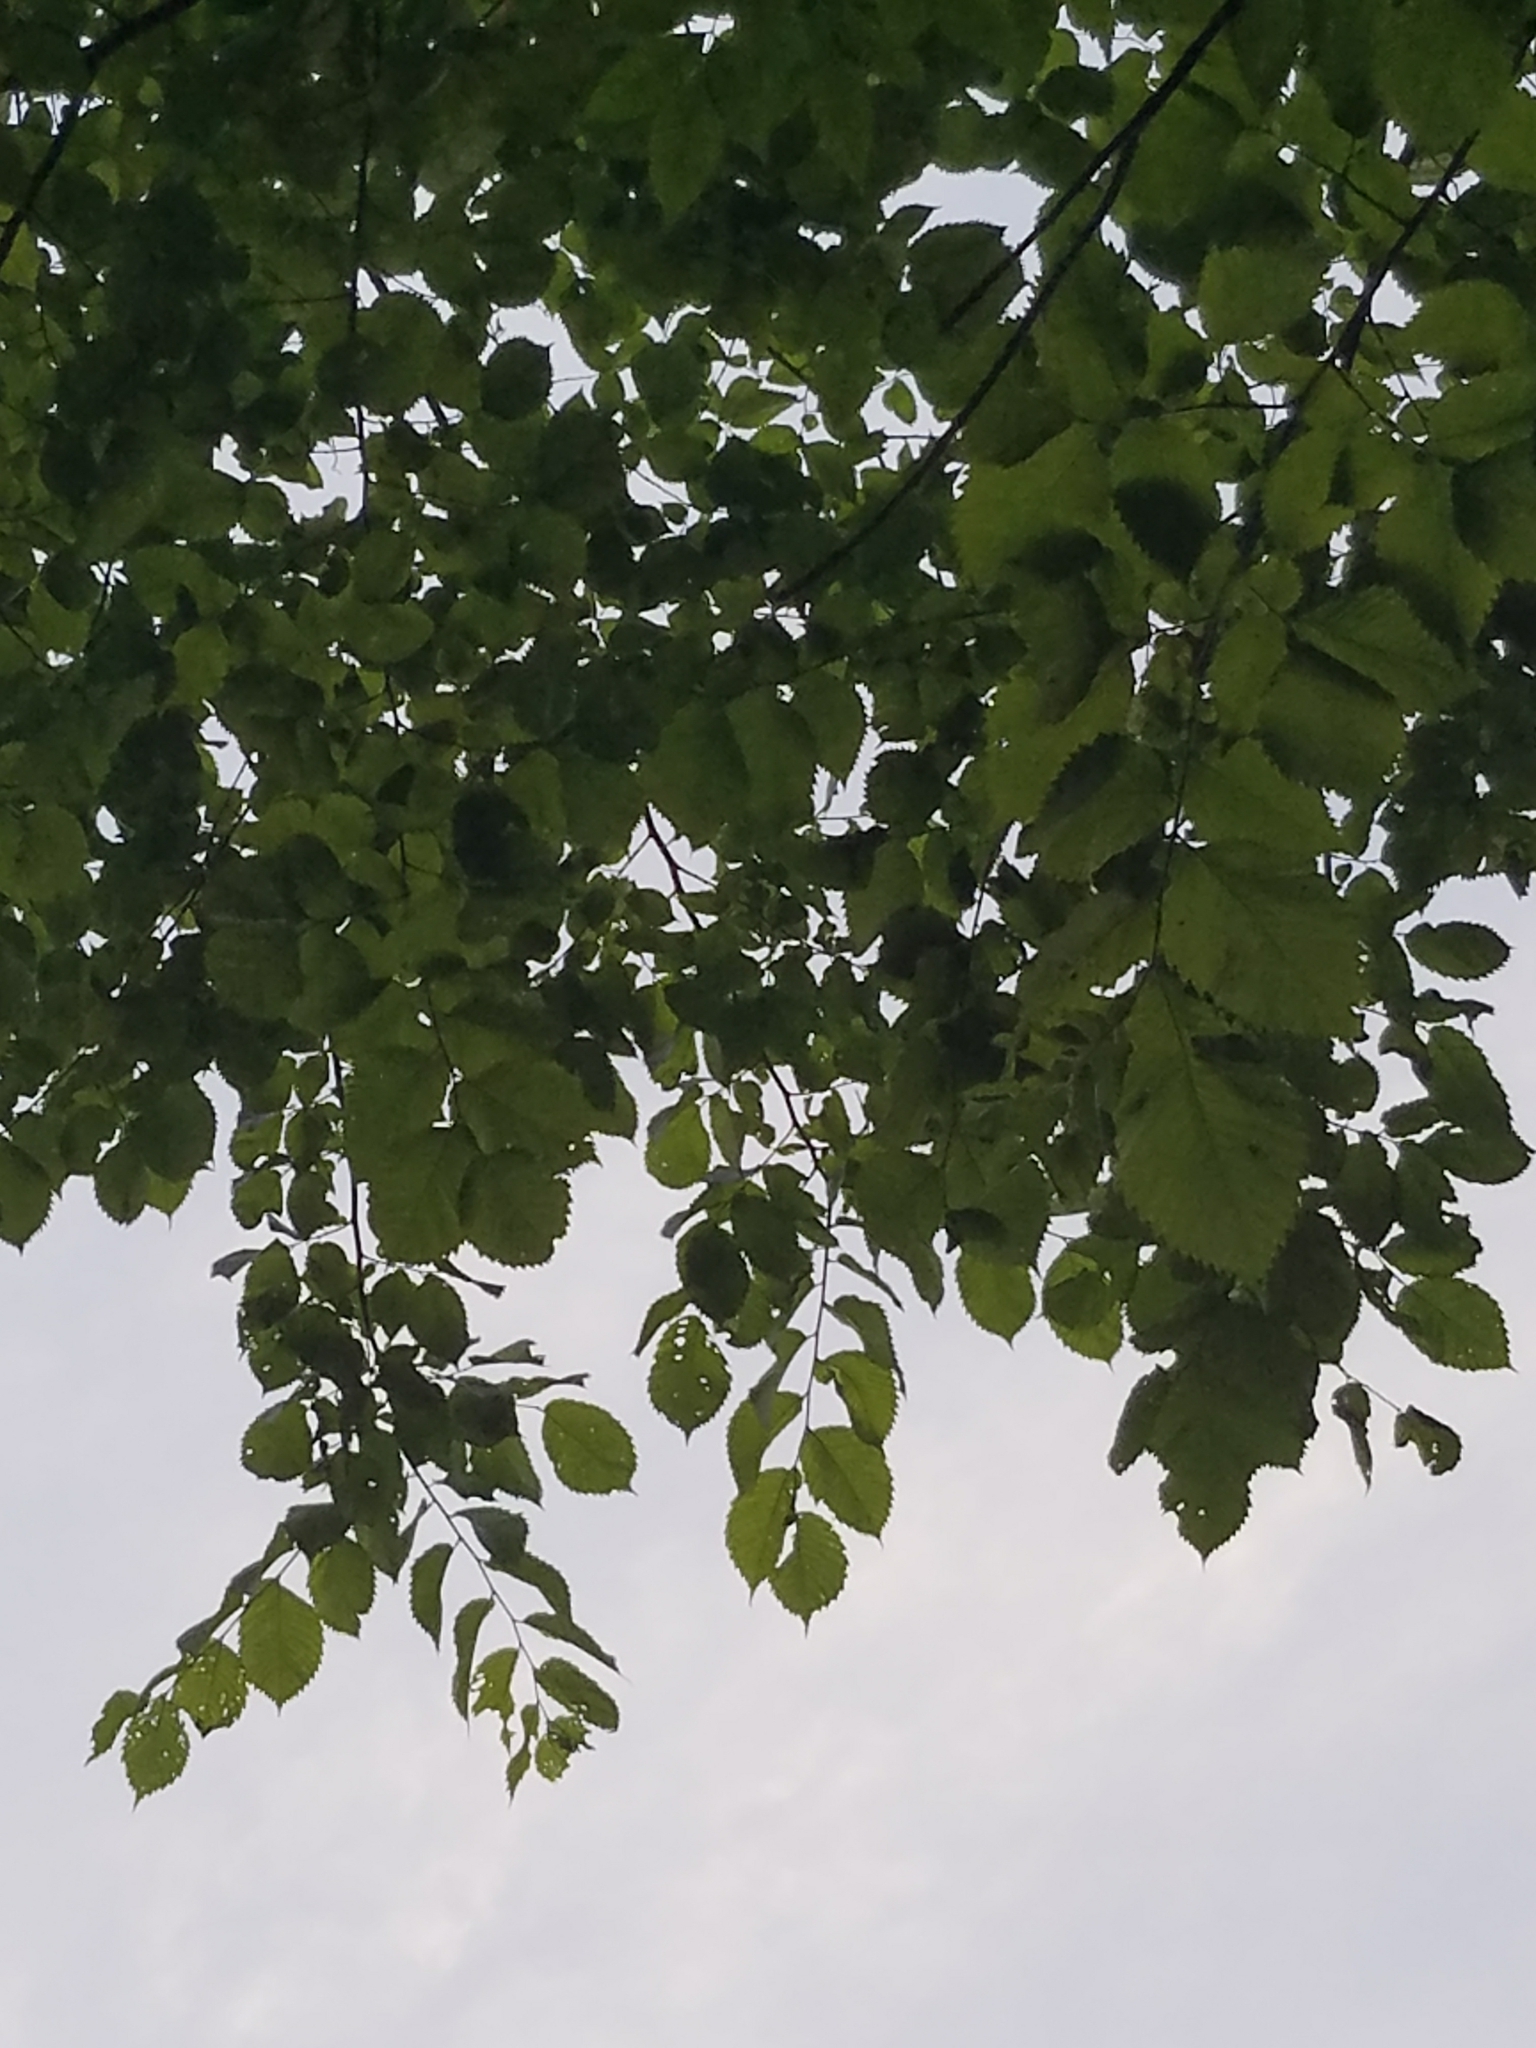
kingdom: Plantae
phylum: Tracheophyta
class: Magnoliopsida
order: Rosales
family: Ulmaceae
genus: Ulmus
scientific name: Ulmus americana
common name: American elm
